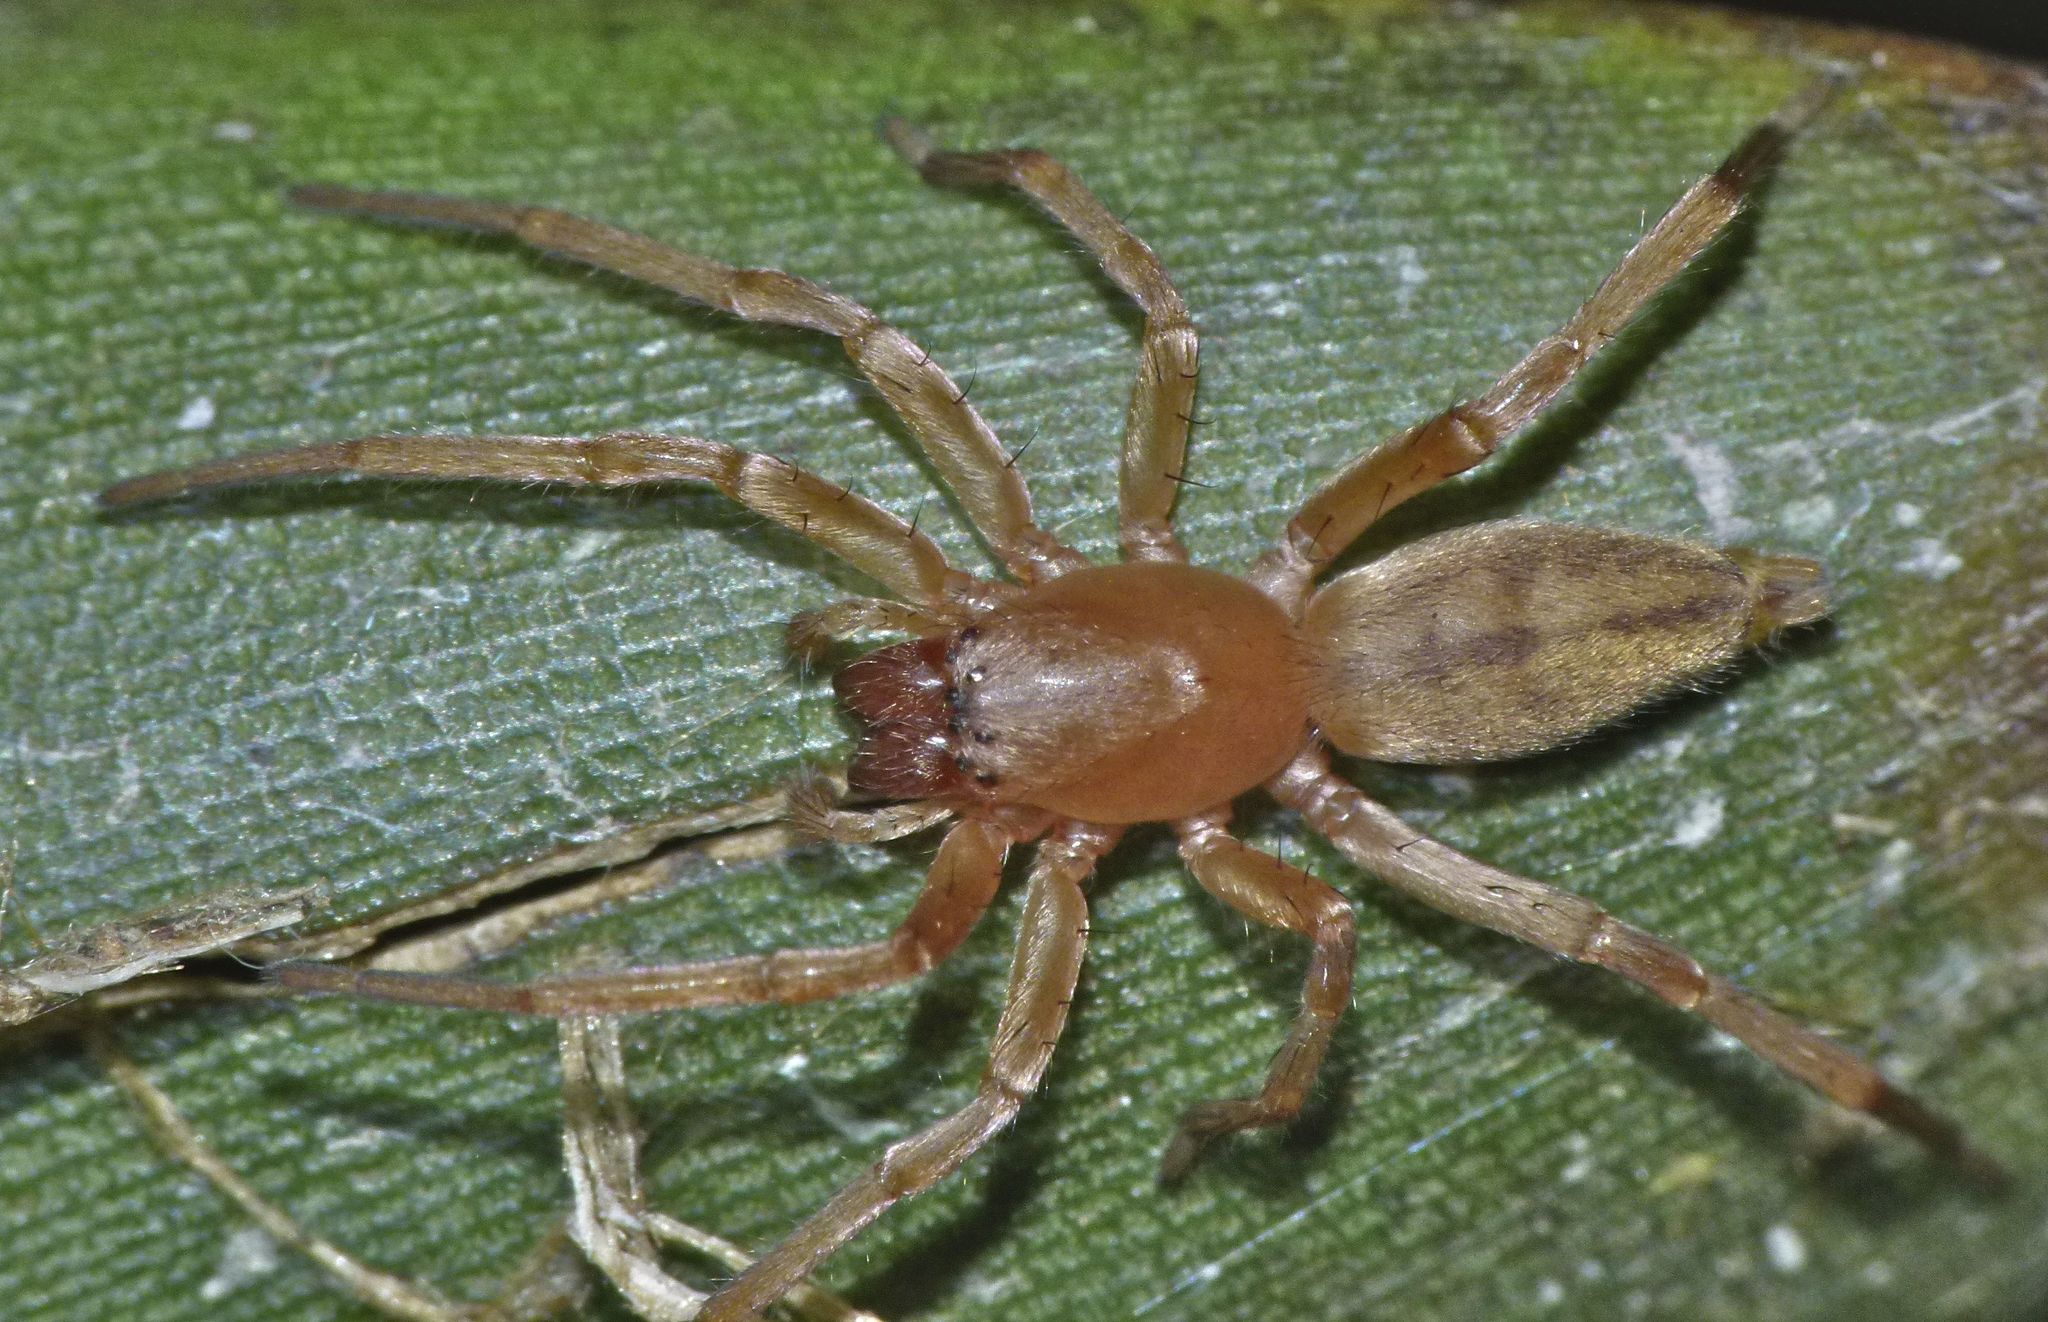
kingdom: Animalia
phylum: Arthropoda
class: Arachnida
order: Araneae
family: Clubionidae
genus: Clubiona
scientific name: Clubiona modesta
